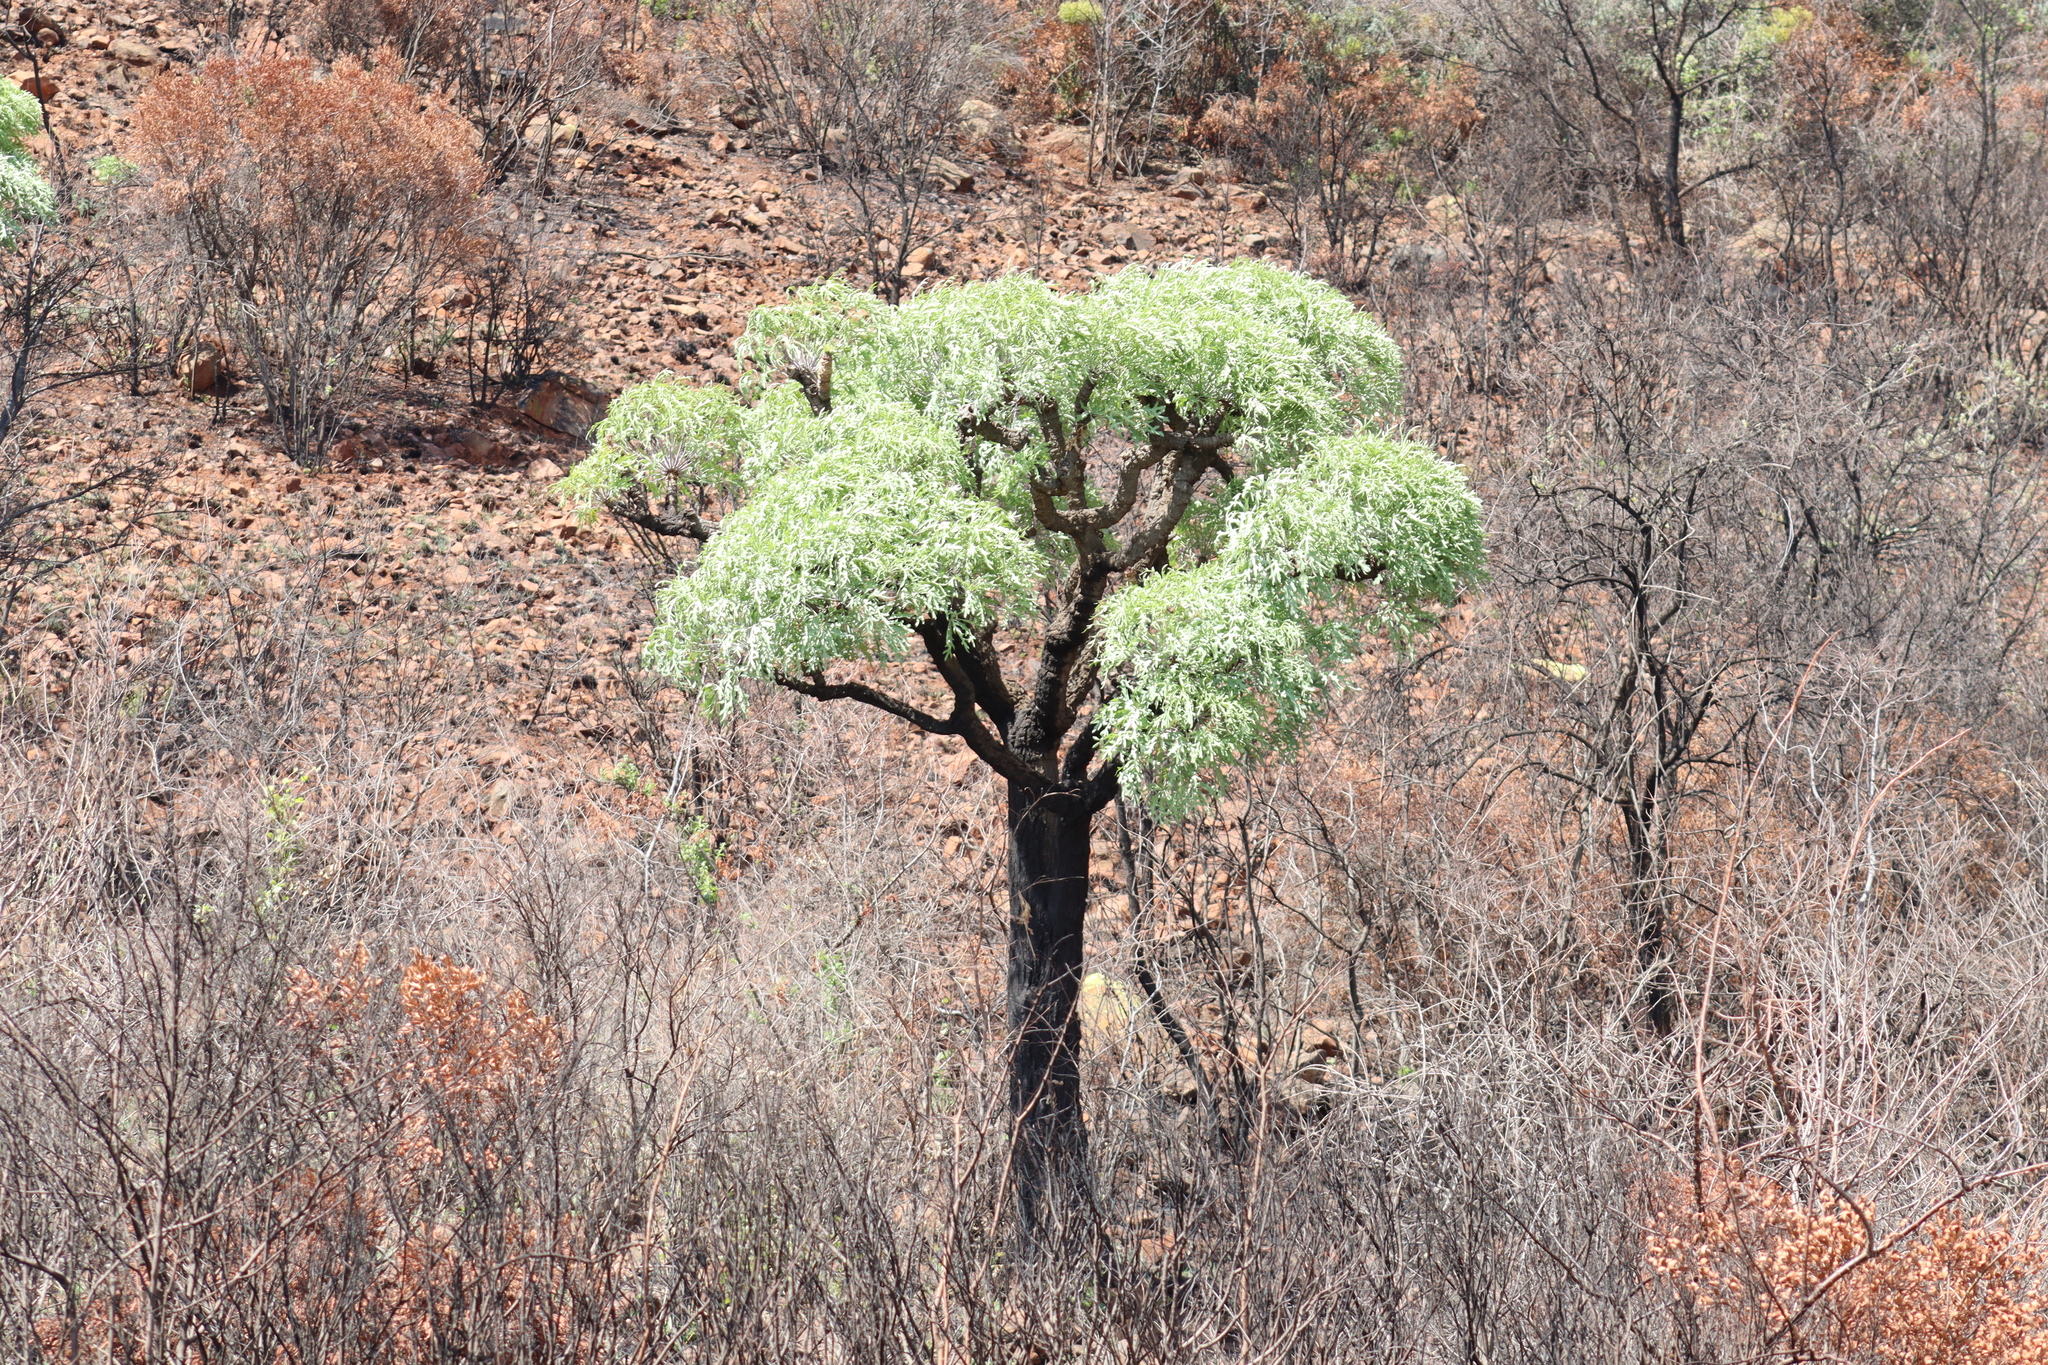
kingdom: Plantae
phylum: Tracheophyta
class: Magnoliopsida
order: Apiales
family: Araliaceae
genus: Cussonia
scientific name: Cussonia paniculata
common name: Cabbagetree
